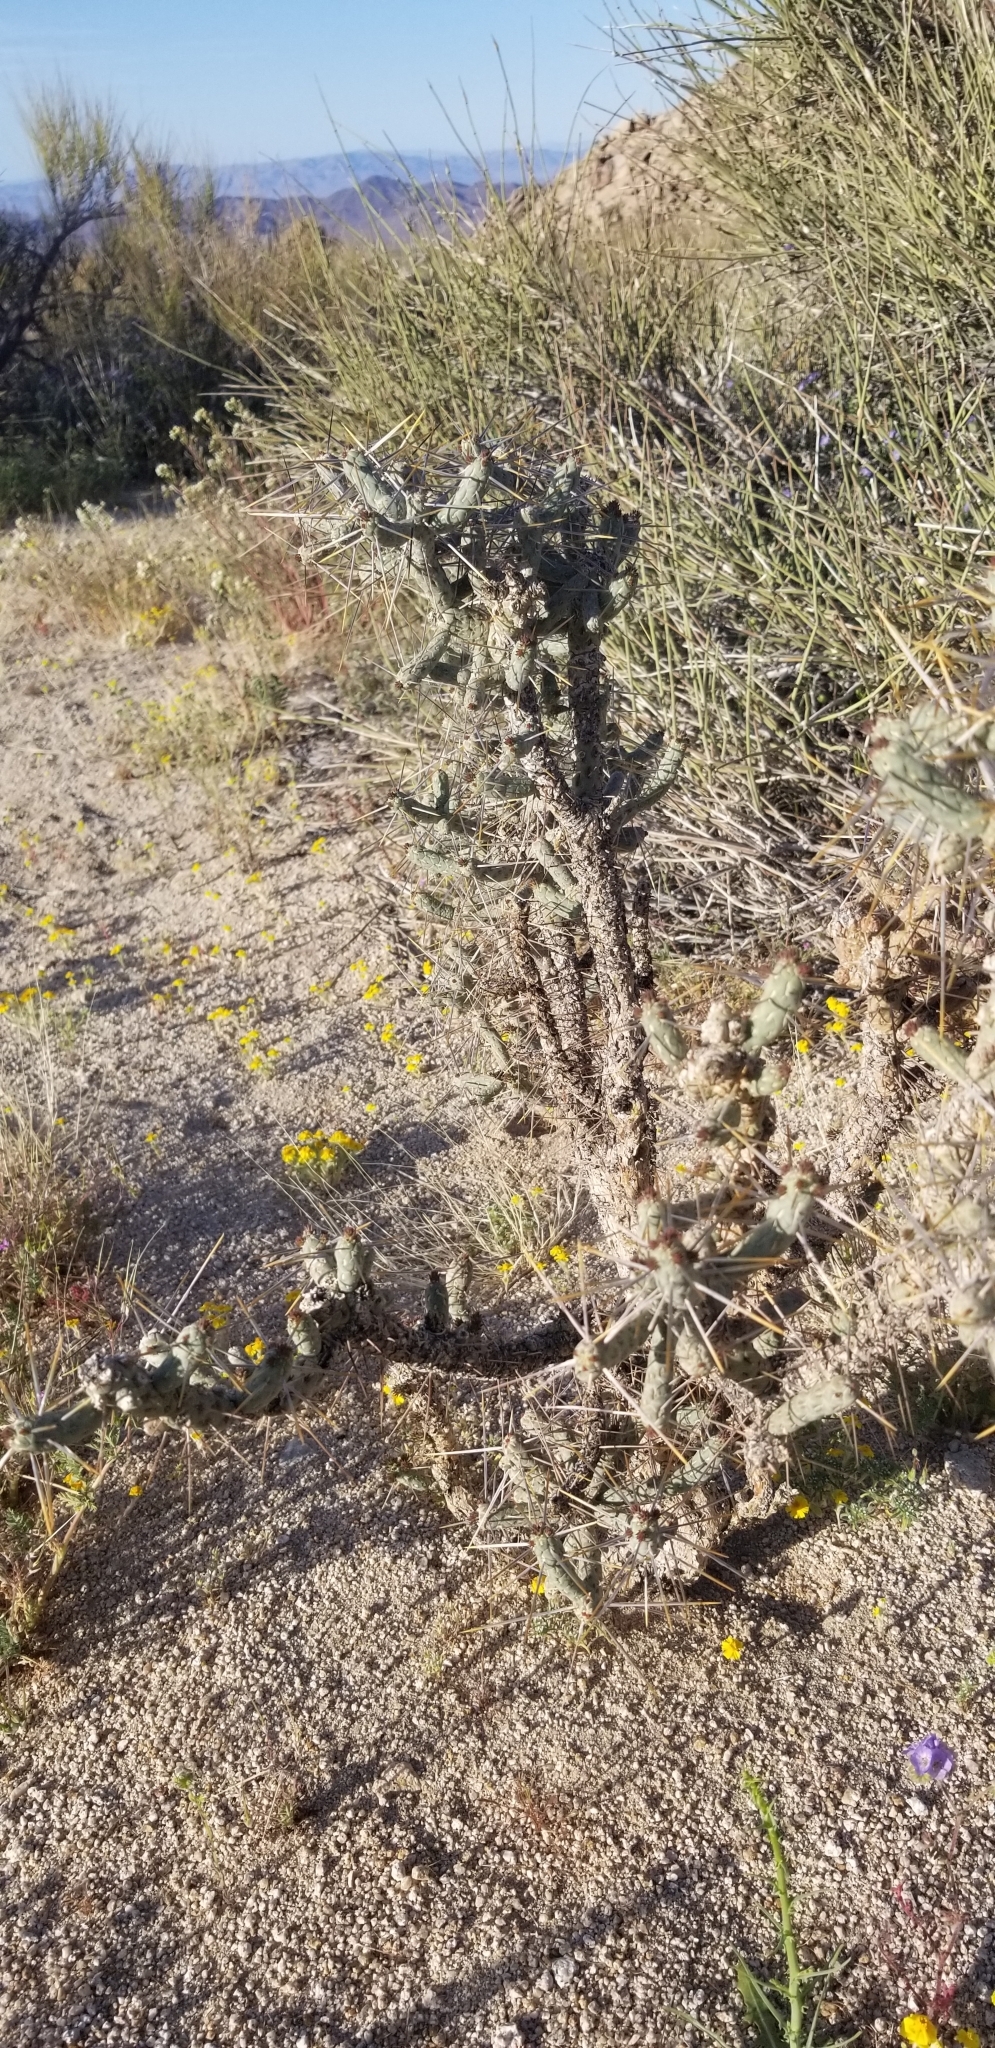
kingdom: Plantae
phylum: Tracheophyta
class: Magnoliopsida
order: Caryophyllales
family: Cactaceae
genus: Cylindropuntia
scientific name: Cylindropuntia ramosissima
